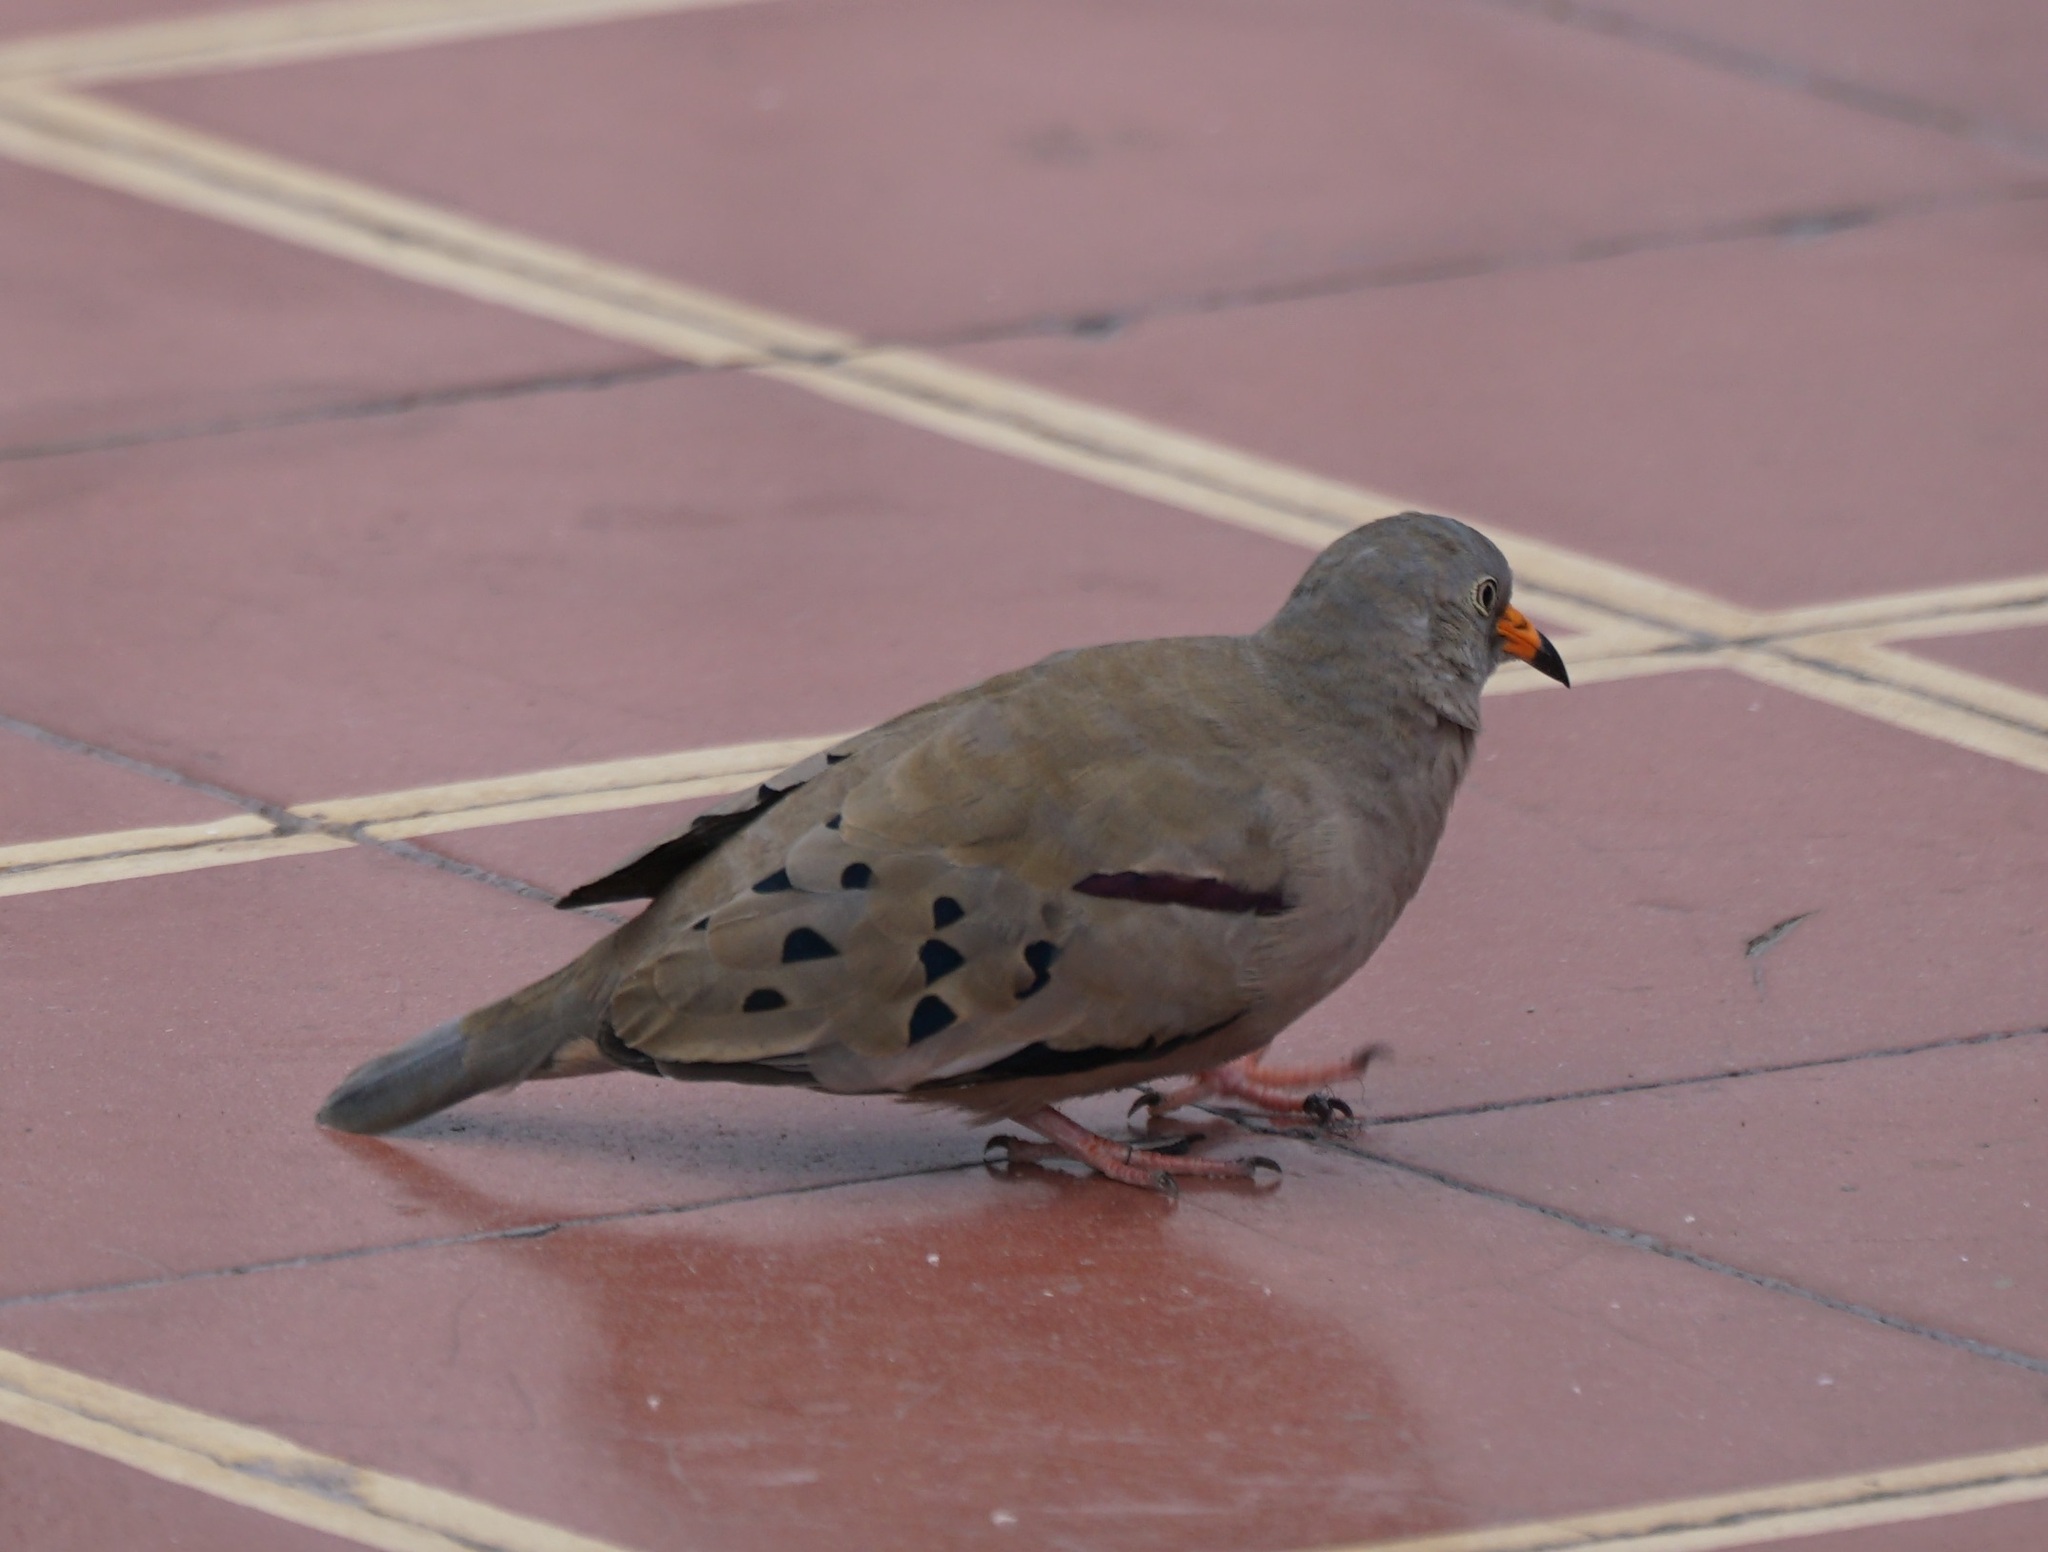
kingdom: Animalia
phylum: Chordata
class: Aves
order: Columbiformes
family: Columbidae
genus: Columbina
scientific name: Columbina cruziana
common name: Croaking ground dove
